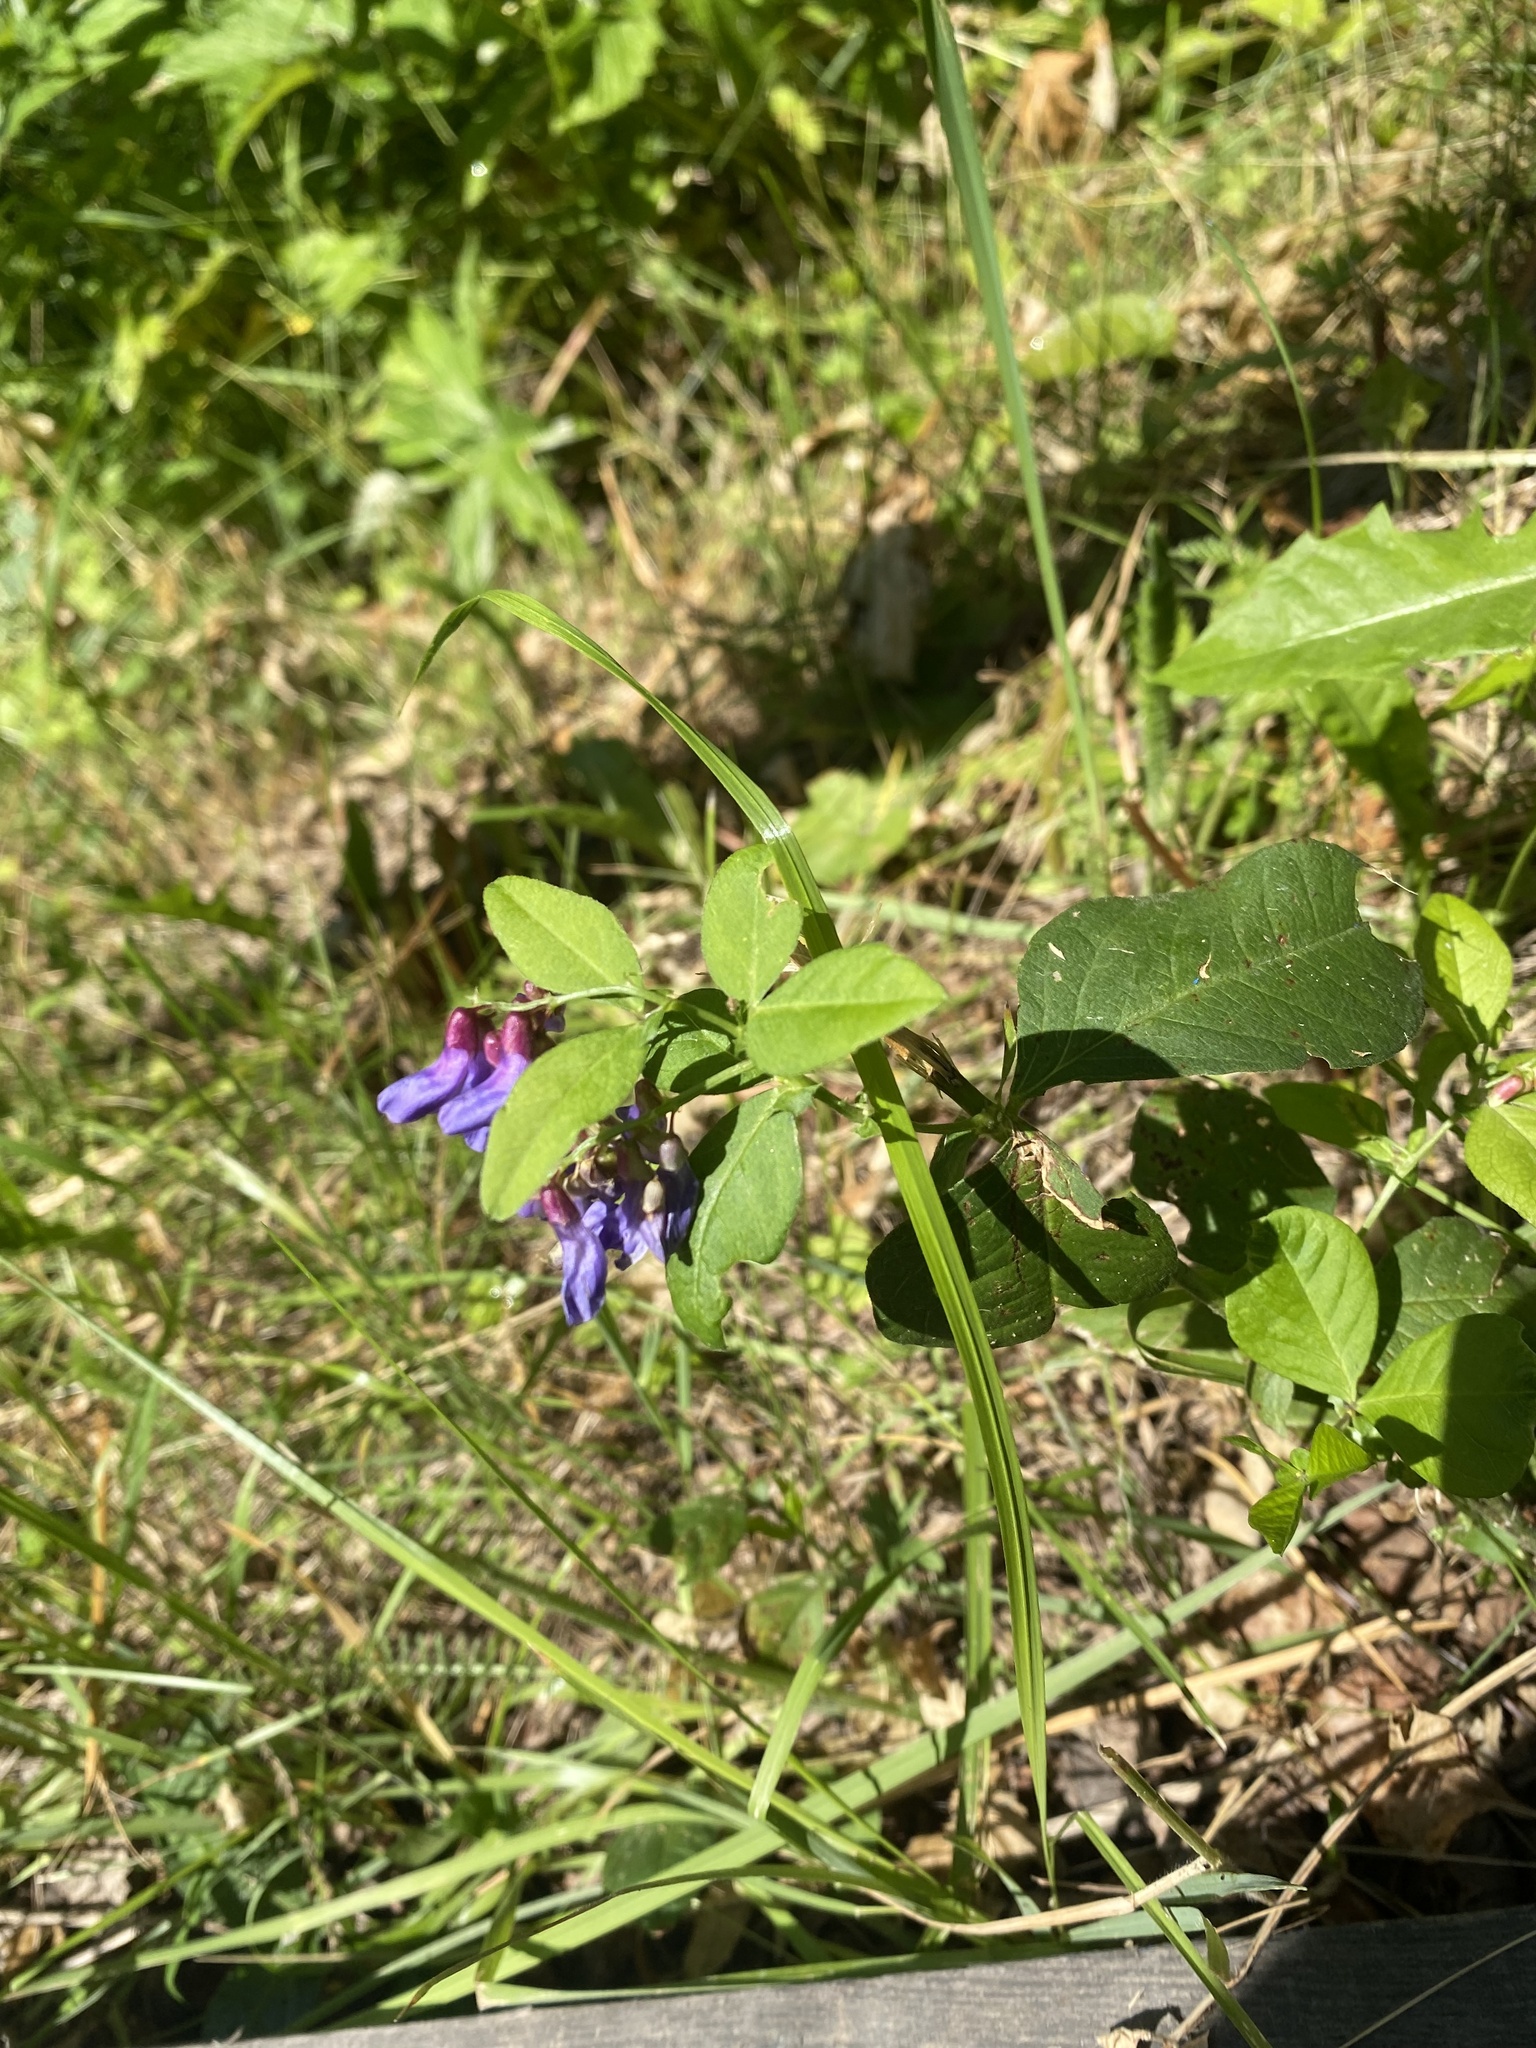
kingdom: Plantae
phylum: Tracheophyta
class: Magnoliopsida
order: Fabales
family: Fabaceae
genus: Vicia
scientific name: Vicia unijuga
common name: Two-leaf vetch
